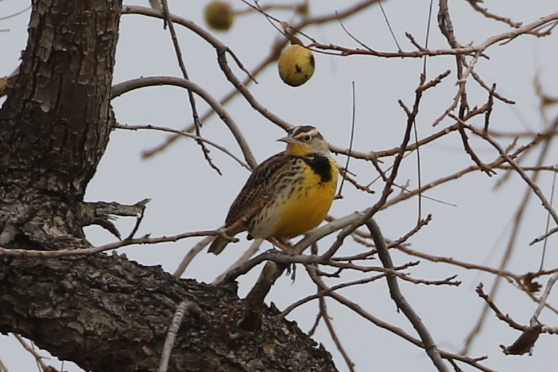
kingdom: Animalia
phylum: Chordata
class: Aves
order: Passeriformes
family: Icteridae
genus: Sturnella
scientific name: Sturnella neglecta
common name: Western meadowlark
